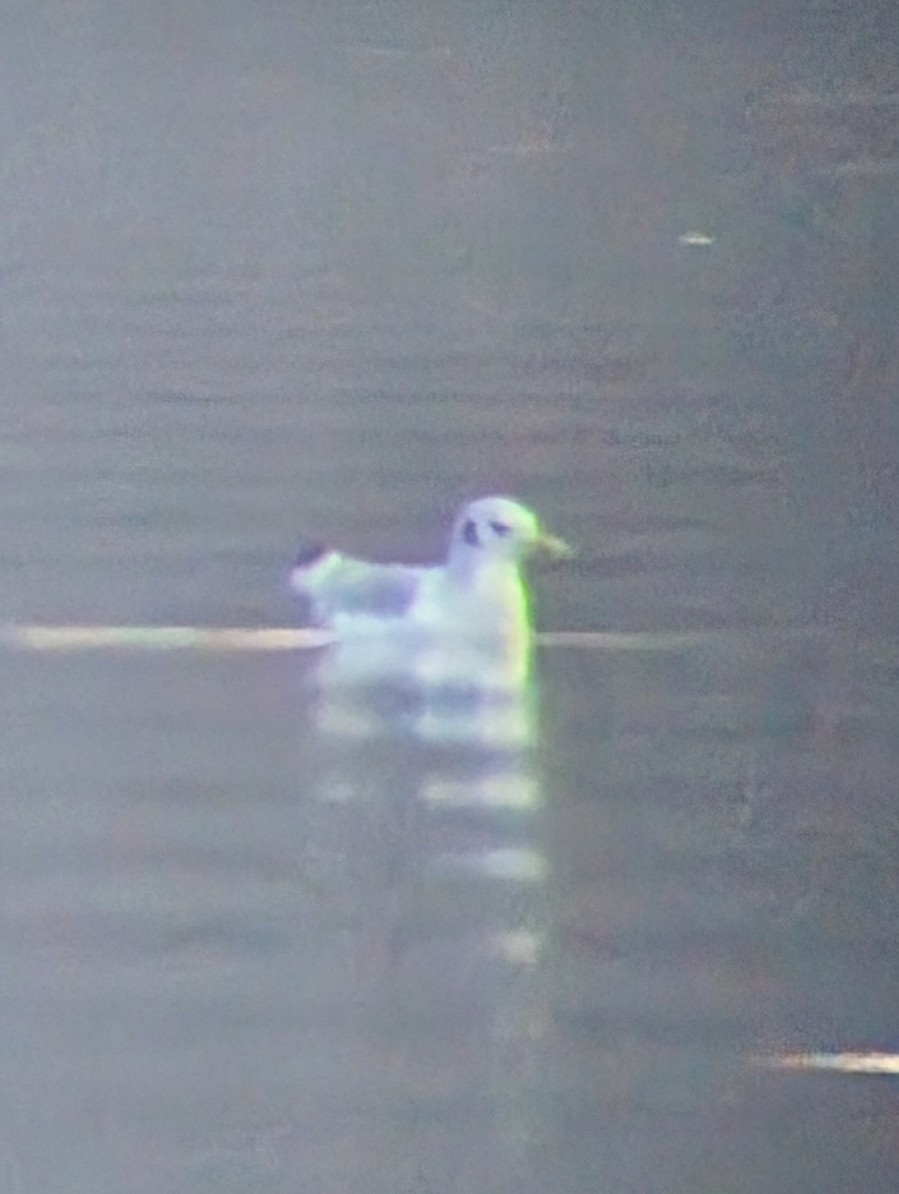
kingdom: Animalia
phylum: Chordata
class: Aves
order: Charadriiformes
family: Laridae
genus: Rissa
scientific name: Rissa tridactyla
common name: Black-legged kittiwake
